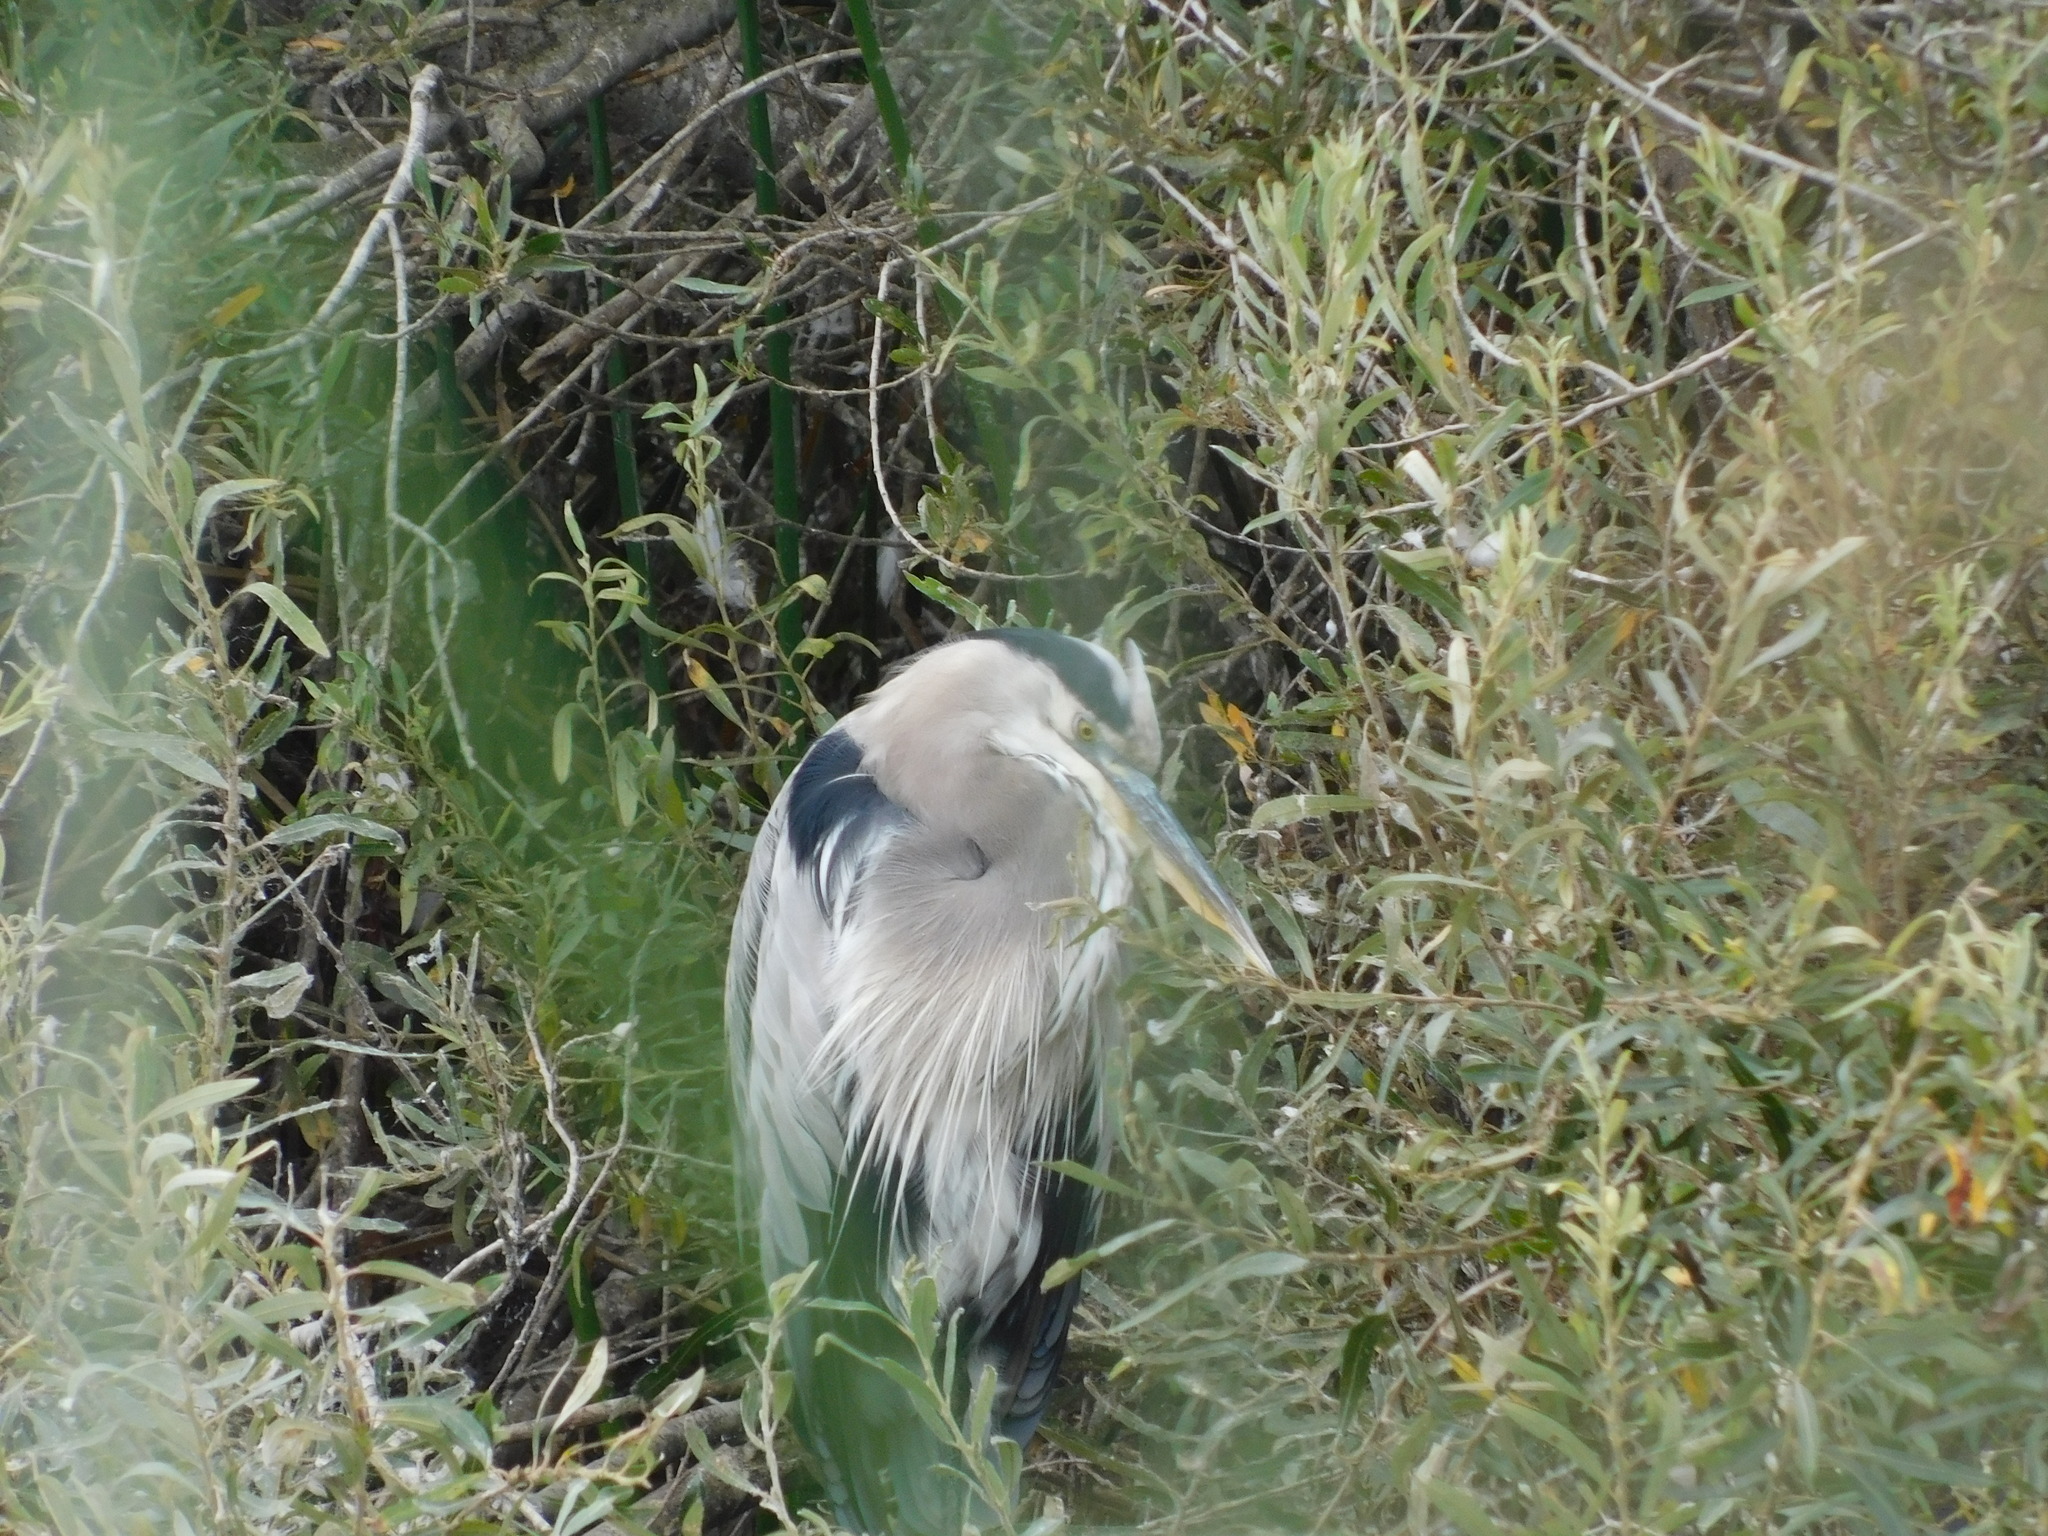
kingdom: Animalia
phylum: Chordata
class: Aves
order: Pelecaniformes
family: Ardeidae
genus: Ardea
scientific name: Ardea herodias
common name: Great blue heron
